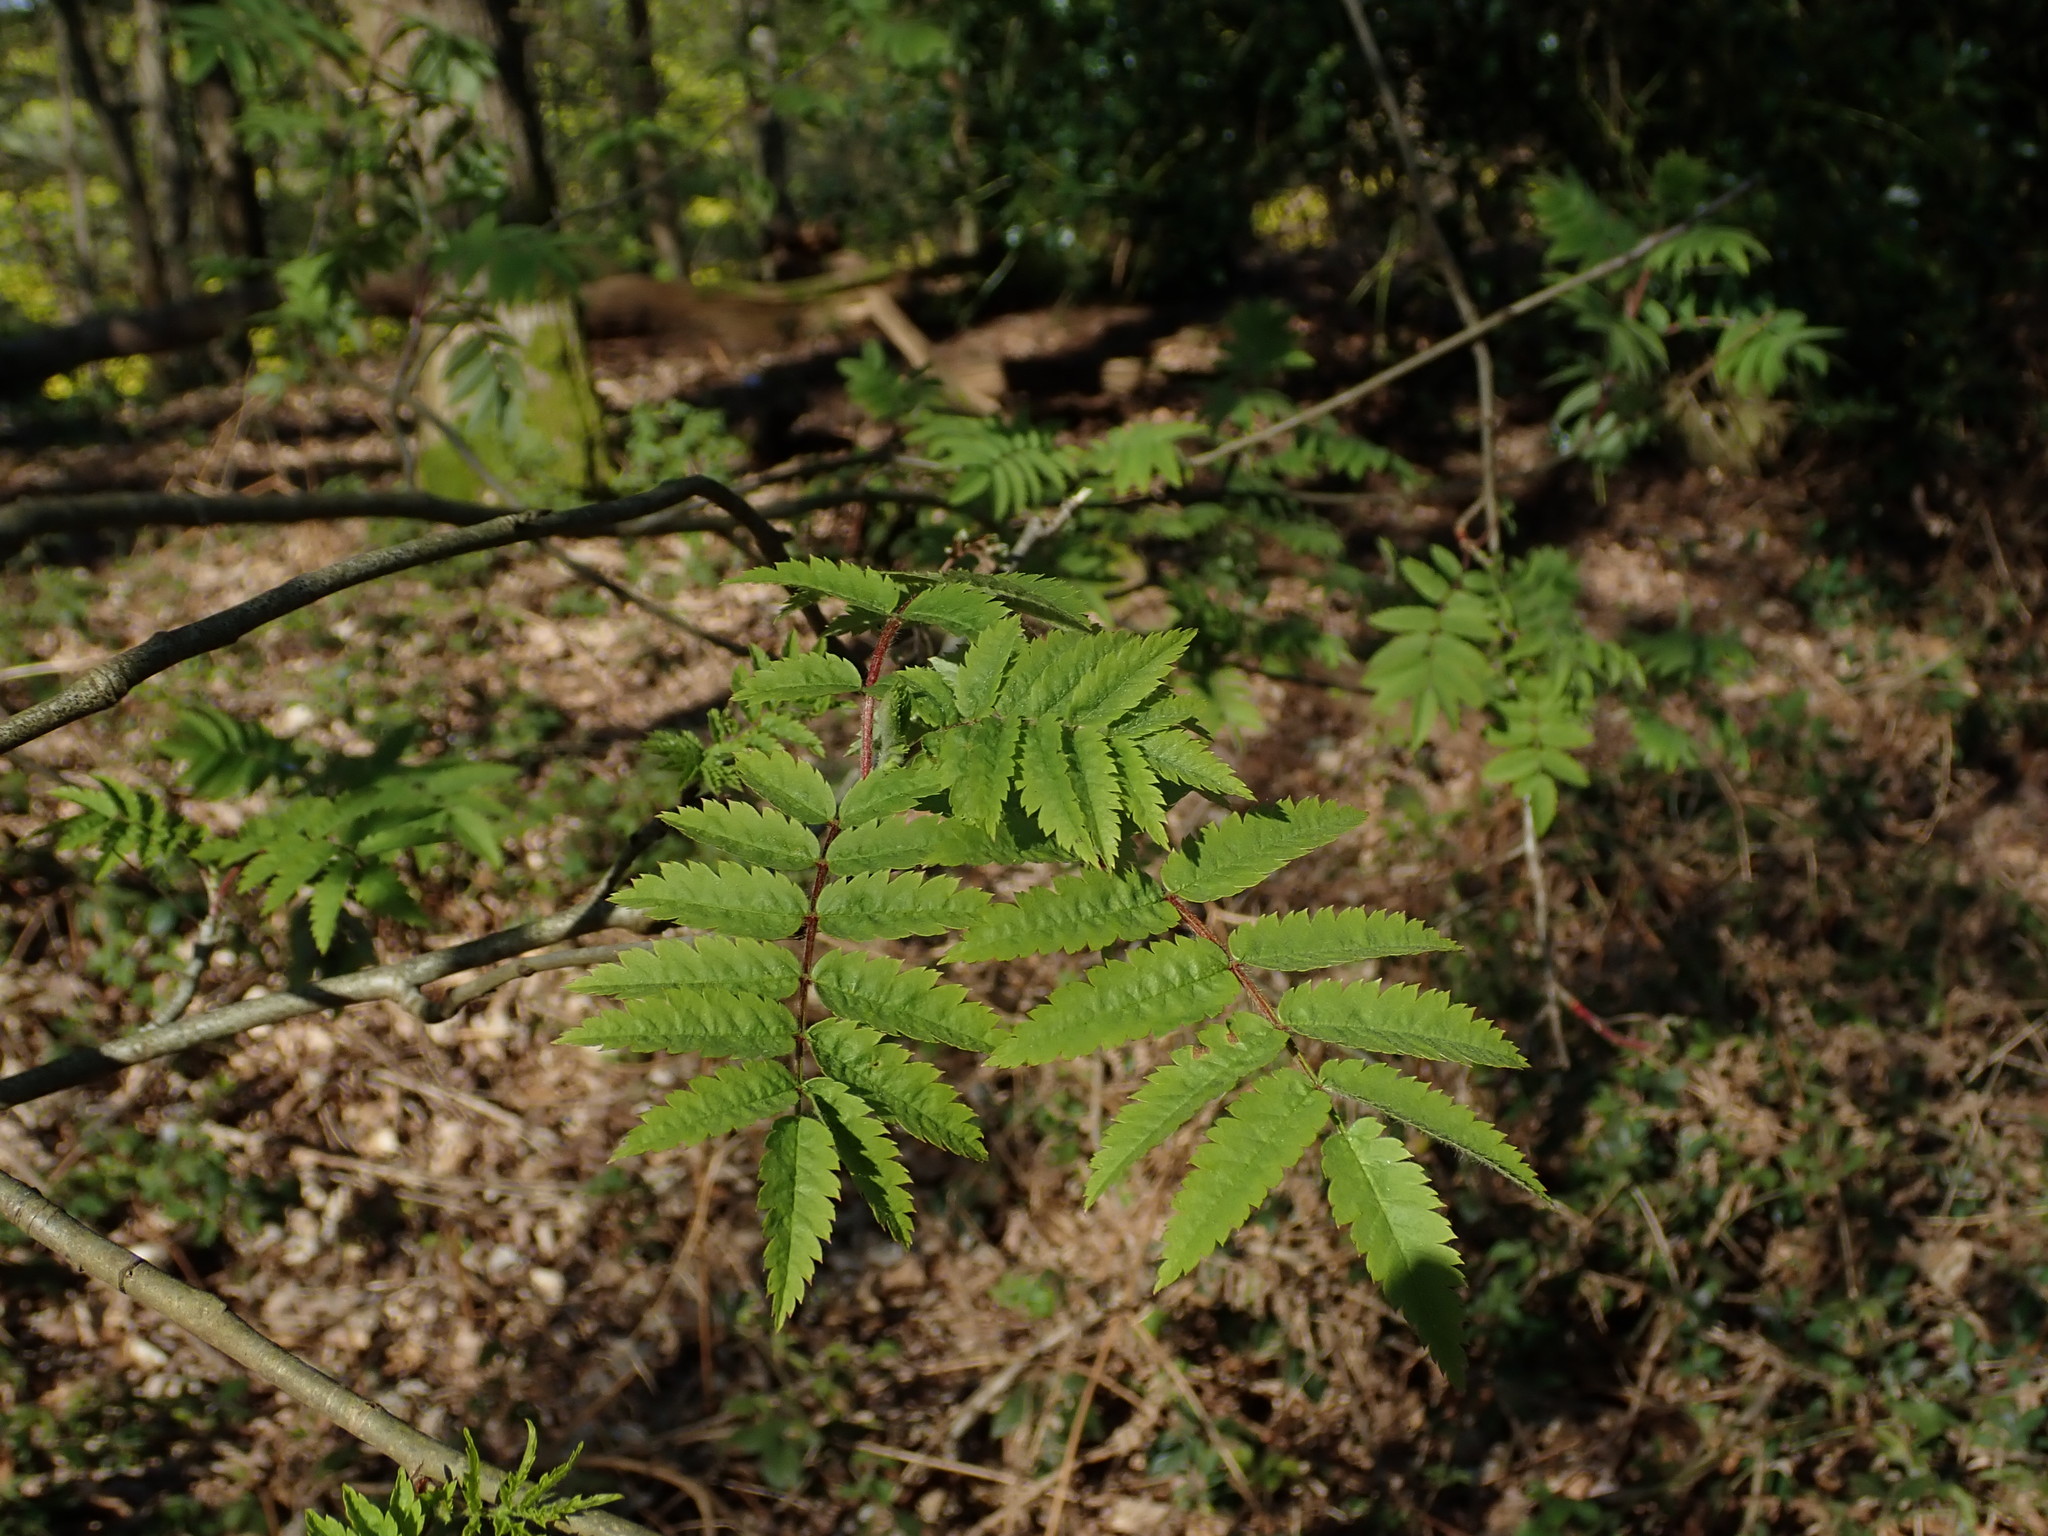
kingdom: Plantae
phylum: Tracheophyta
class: Magnoliopsida
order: Rosales
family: Rosaceae
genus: Sorbus
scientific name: Sorbus aucuparia
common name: Rowan
